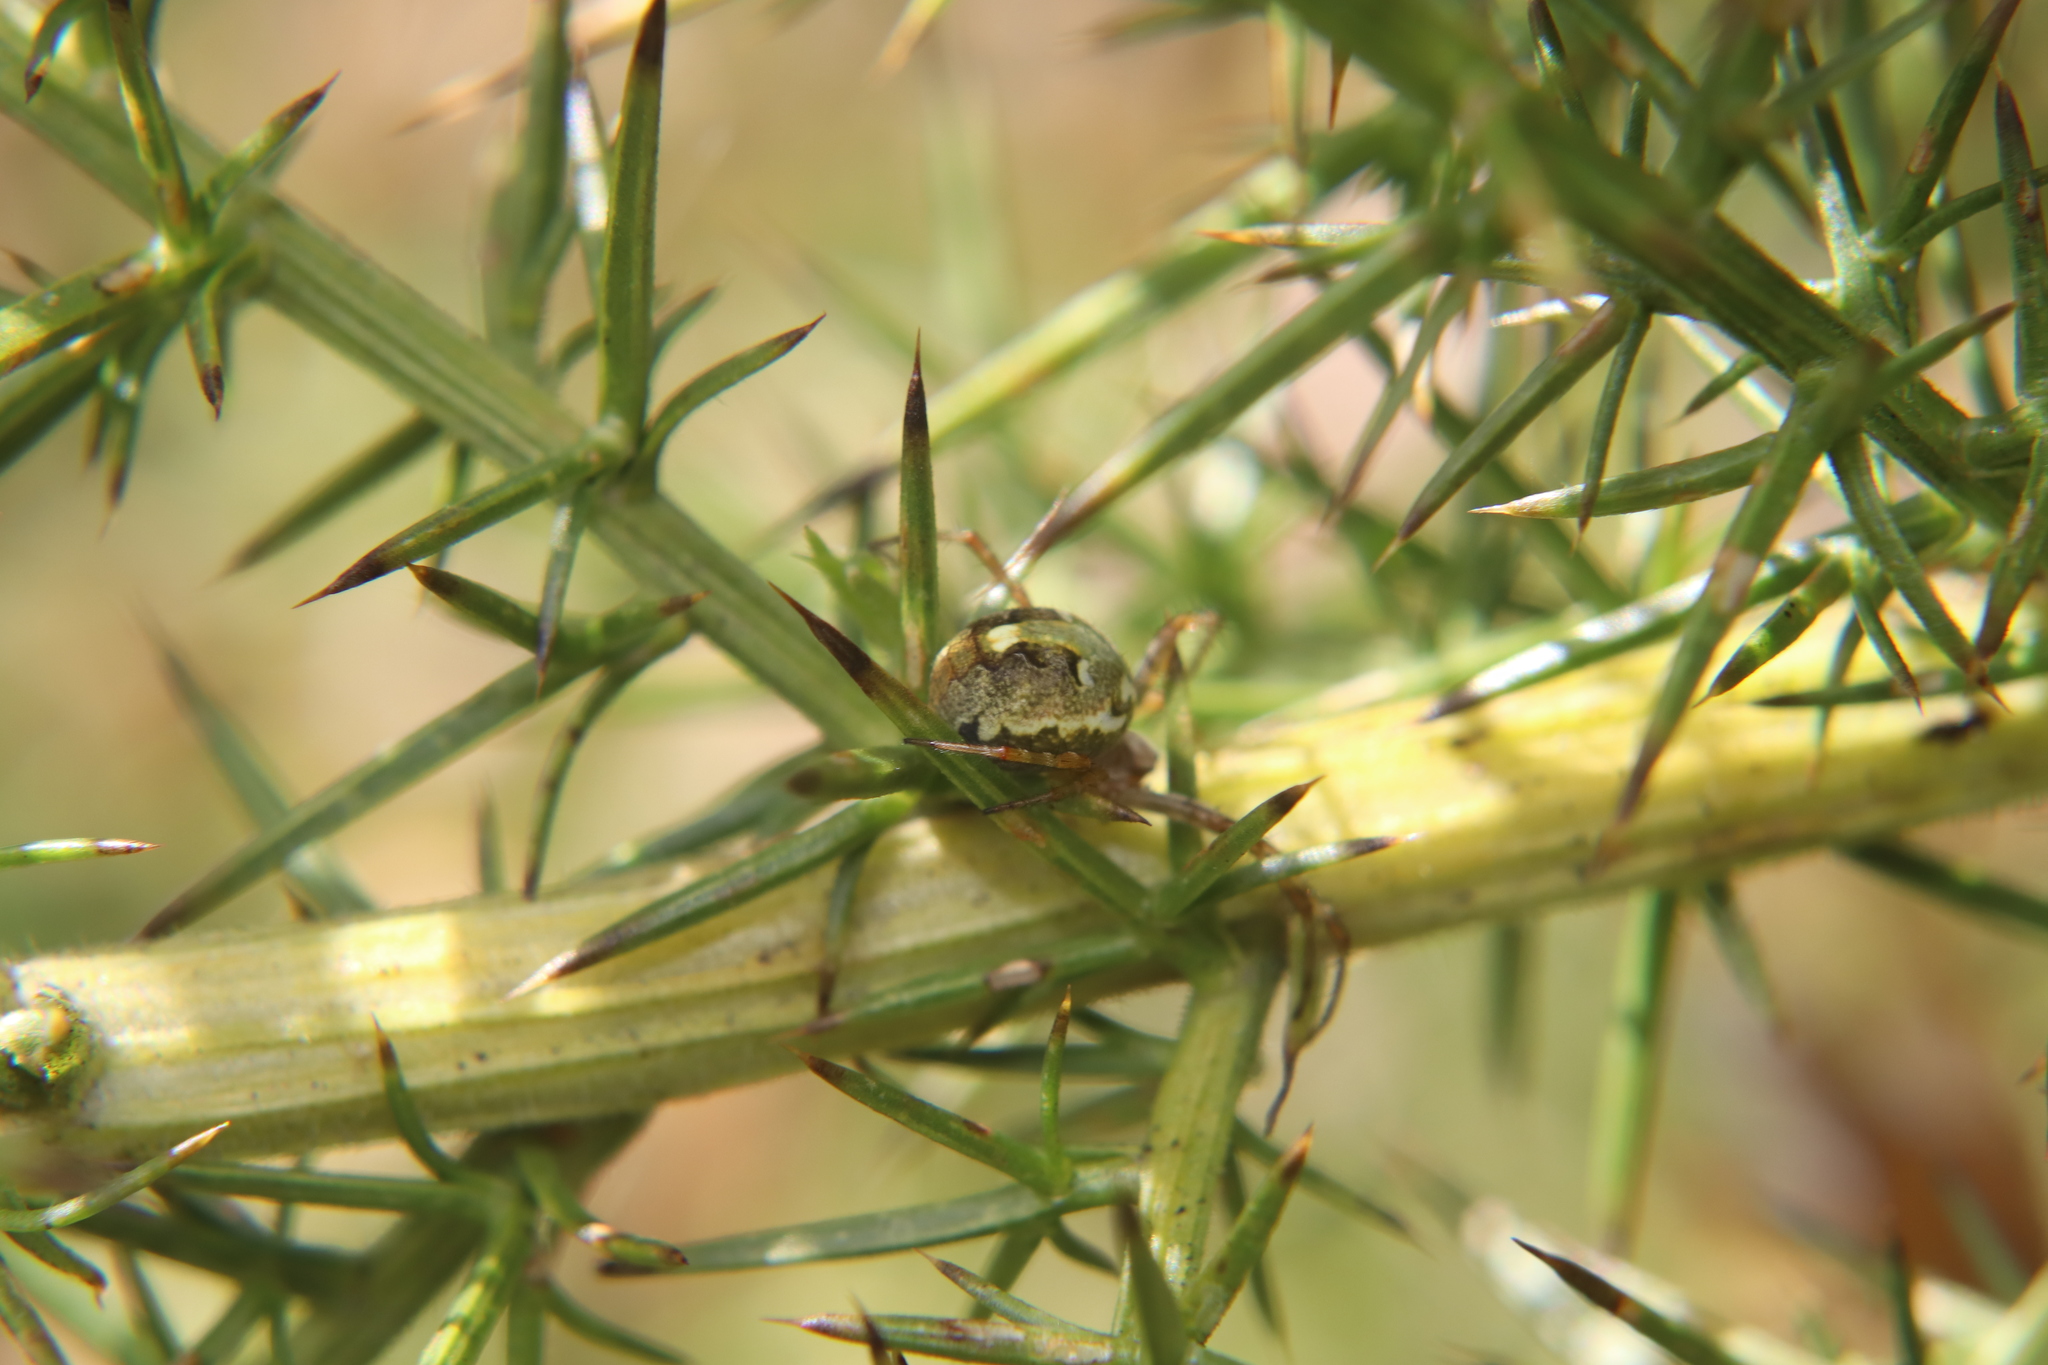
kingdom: Animalia
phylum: Arthropoda
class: Arachnida
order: Araneae
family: Araneidae
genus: Novaranea
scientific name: Novaranea queribunda
